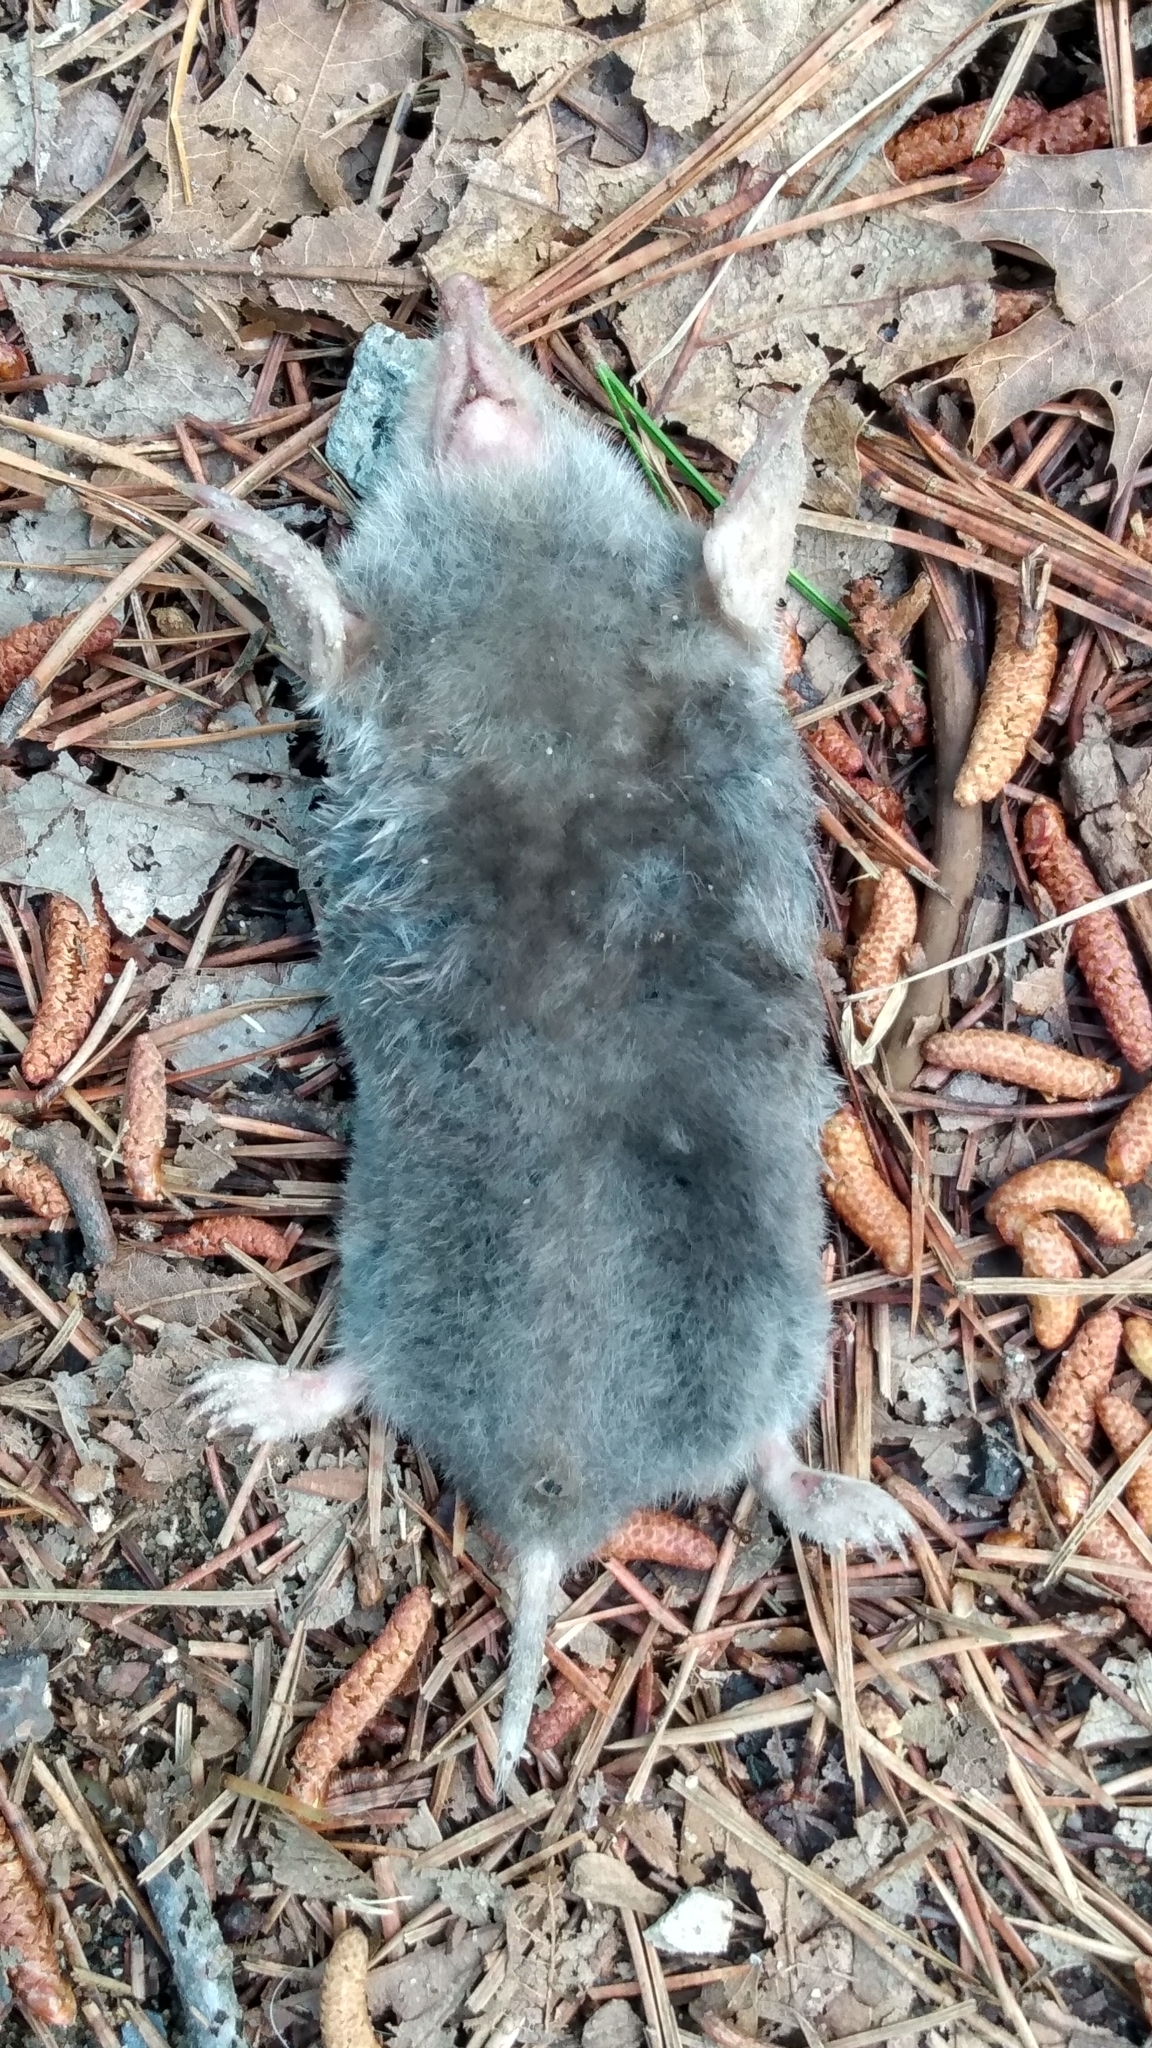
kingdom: Animalia
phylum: Chordata
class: Mammalia
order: Soricomorpha
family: Talpidae
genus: Scalopus
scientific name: Scalopus aquaticus
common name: Eastern mole
